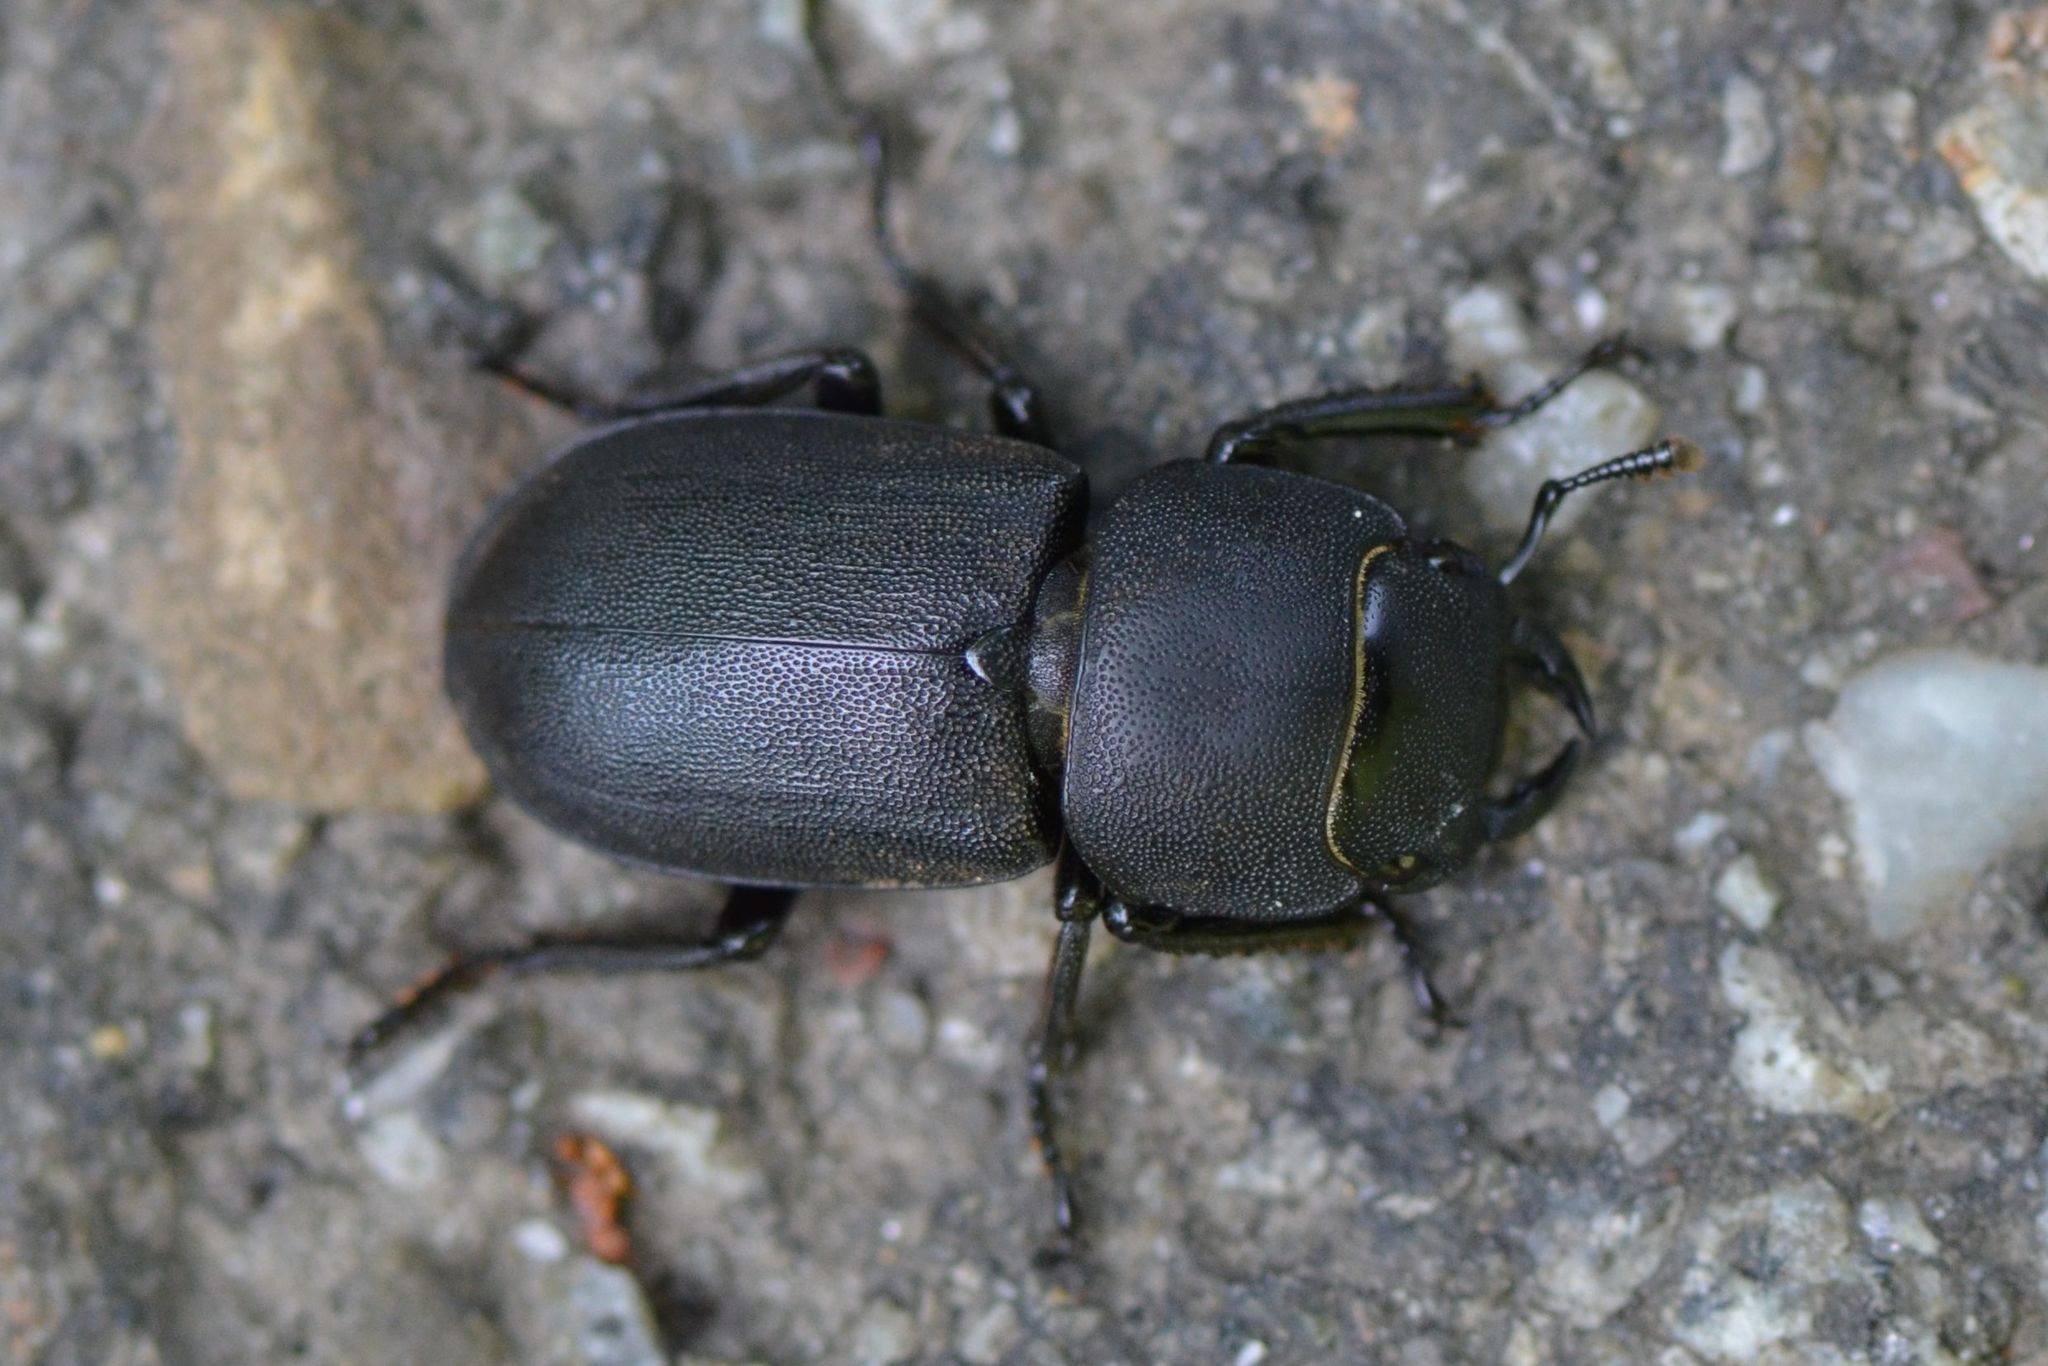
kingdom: Animalia
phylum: Arthropoda
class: Insecta
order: Coleoptera
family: Lucanidae
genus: Dorcus
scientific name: Dorcus parallelipipedus
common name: Lesser stag beetle
